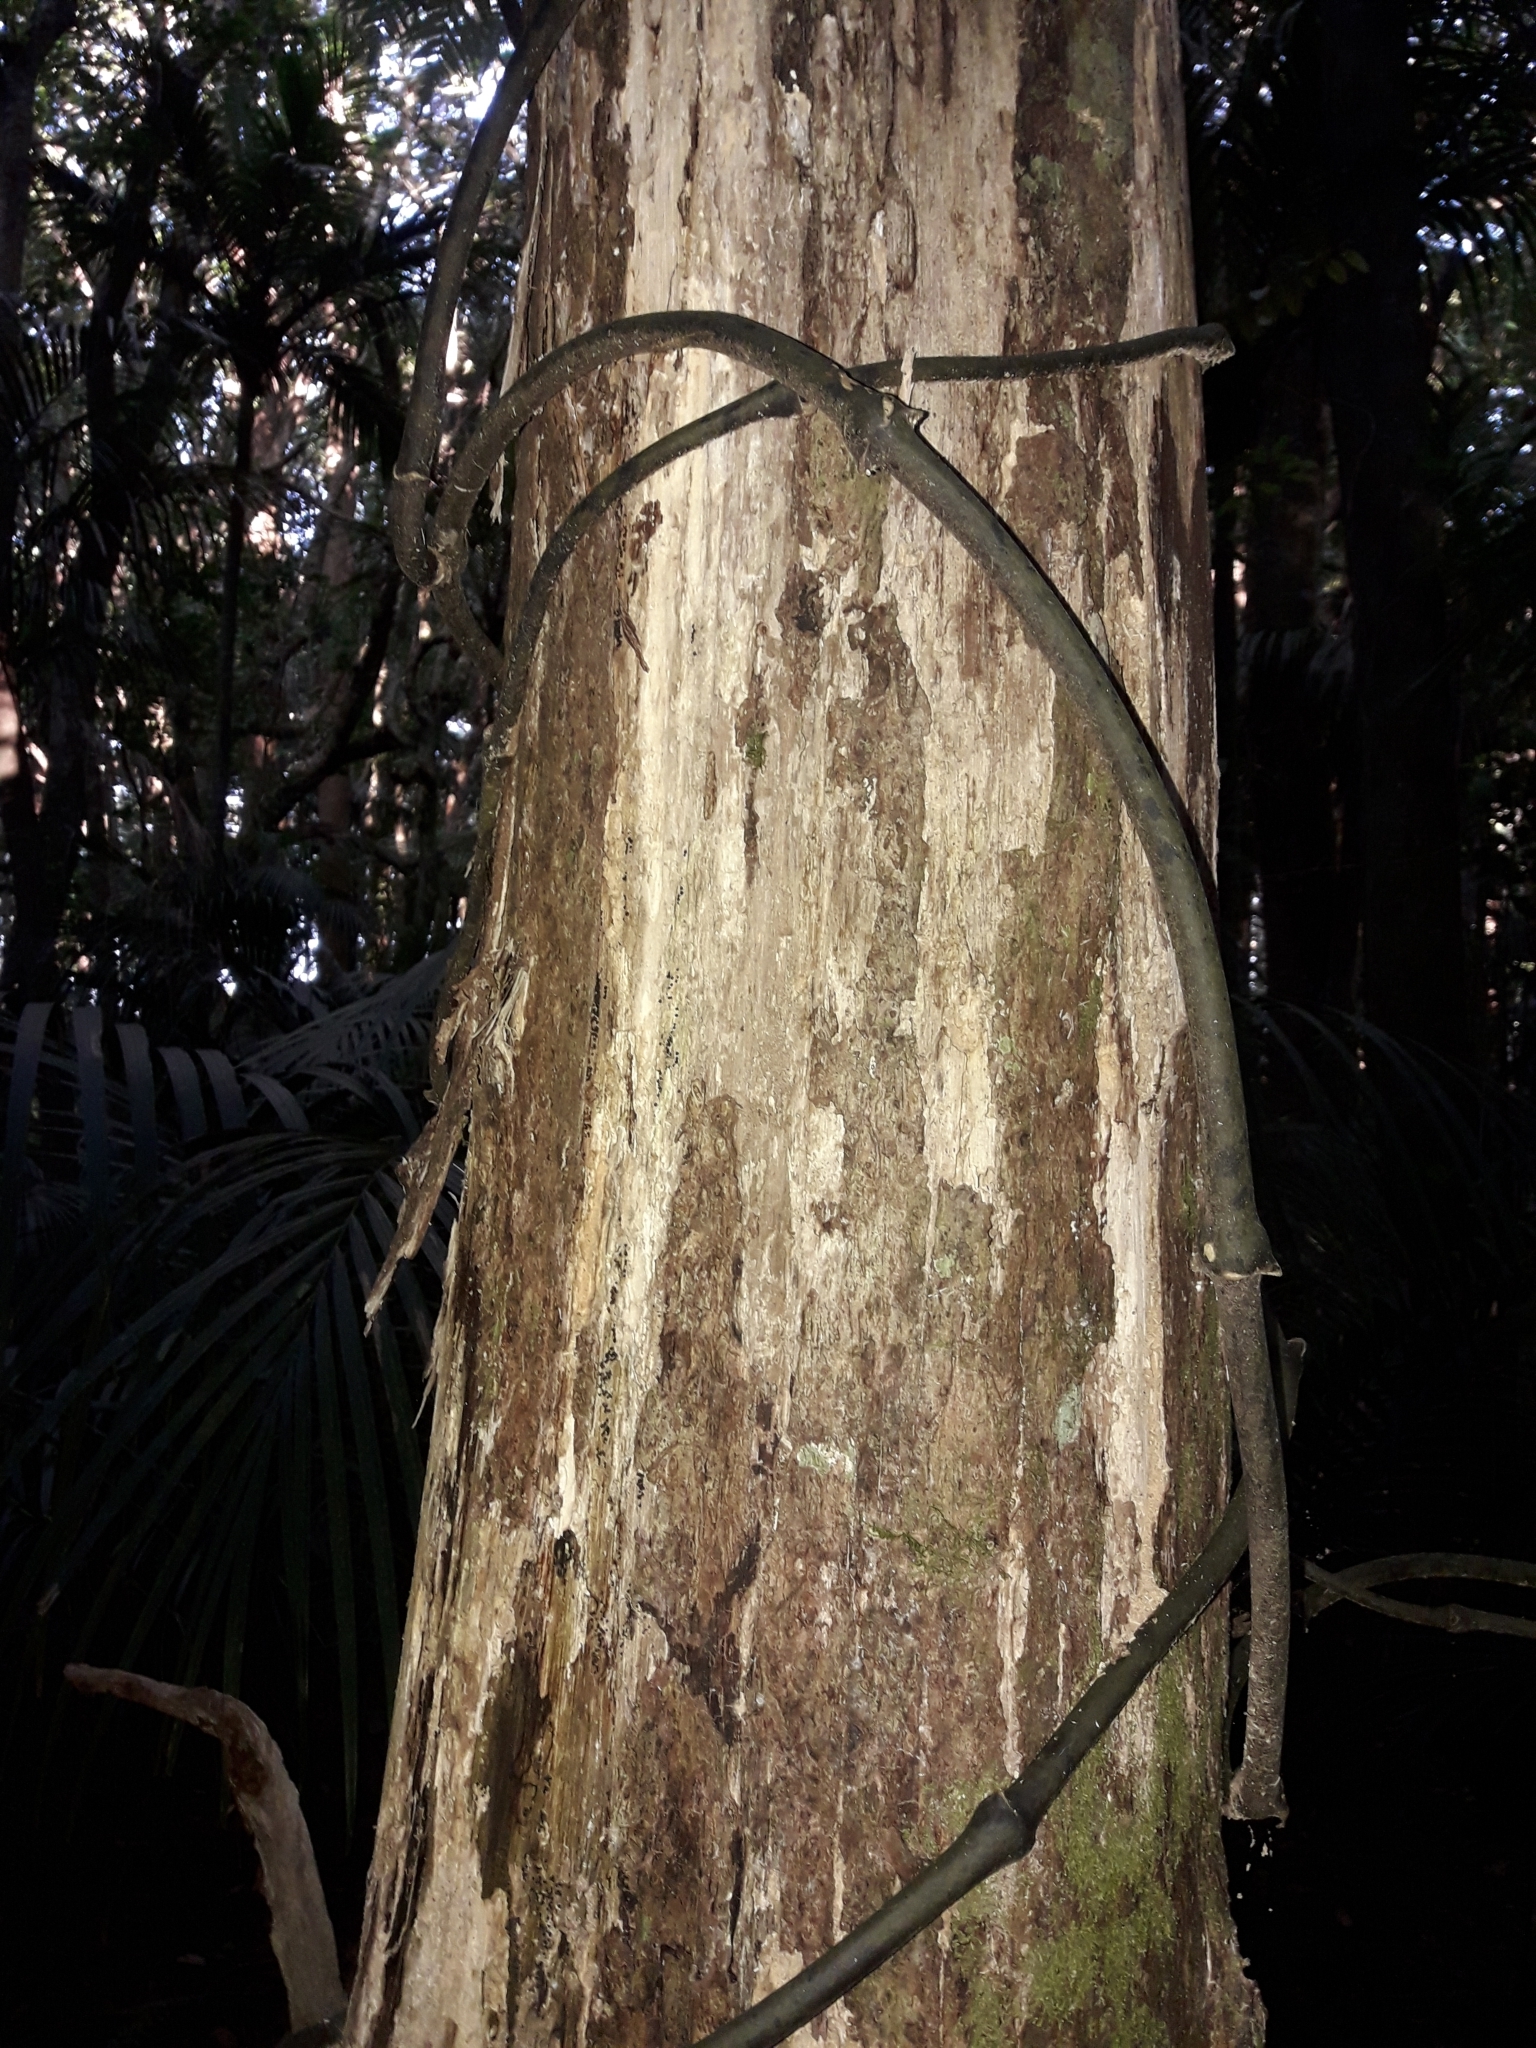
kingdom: Plantae
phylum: Tracheophyta
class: Liliopsida
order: Liliales
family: Ripogonaceae
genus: Ripogonum
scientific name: Ripogonum scandens
